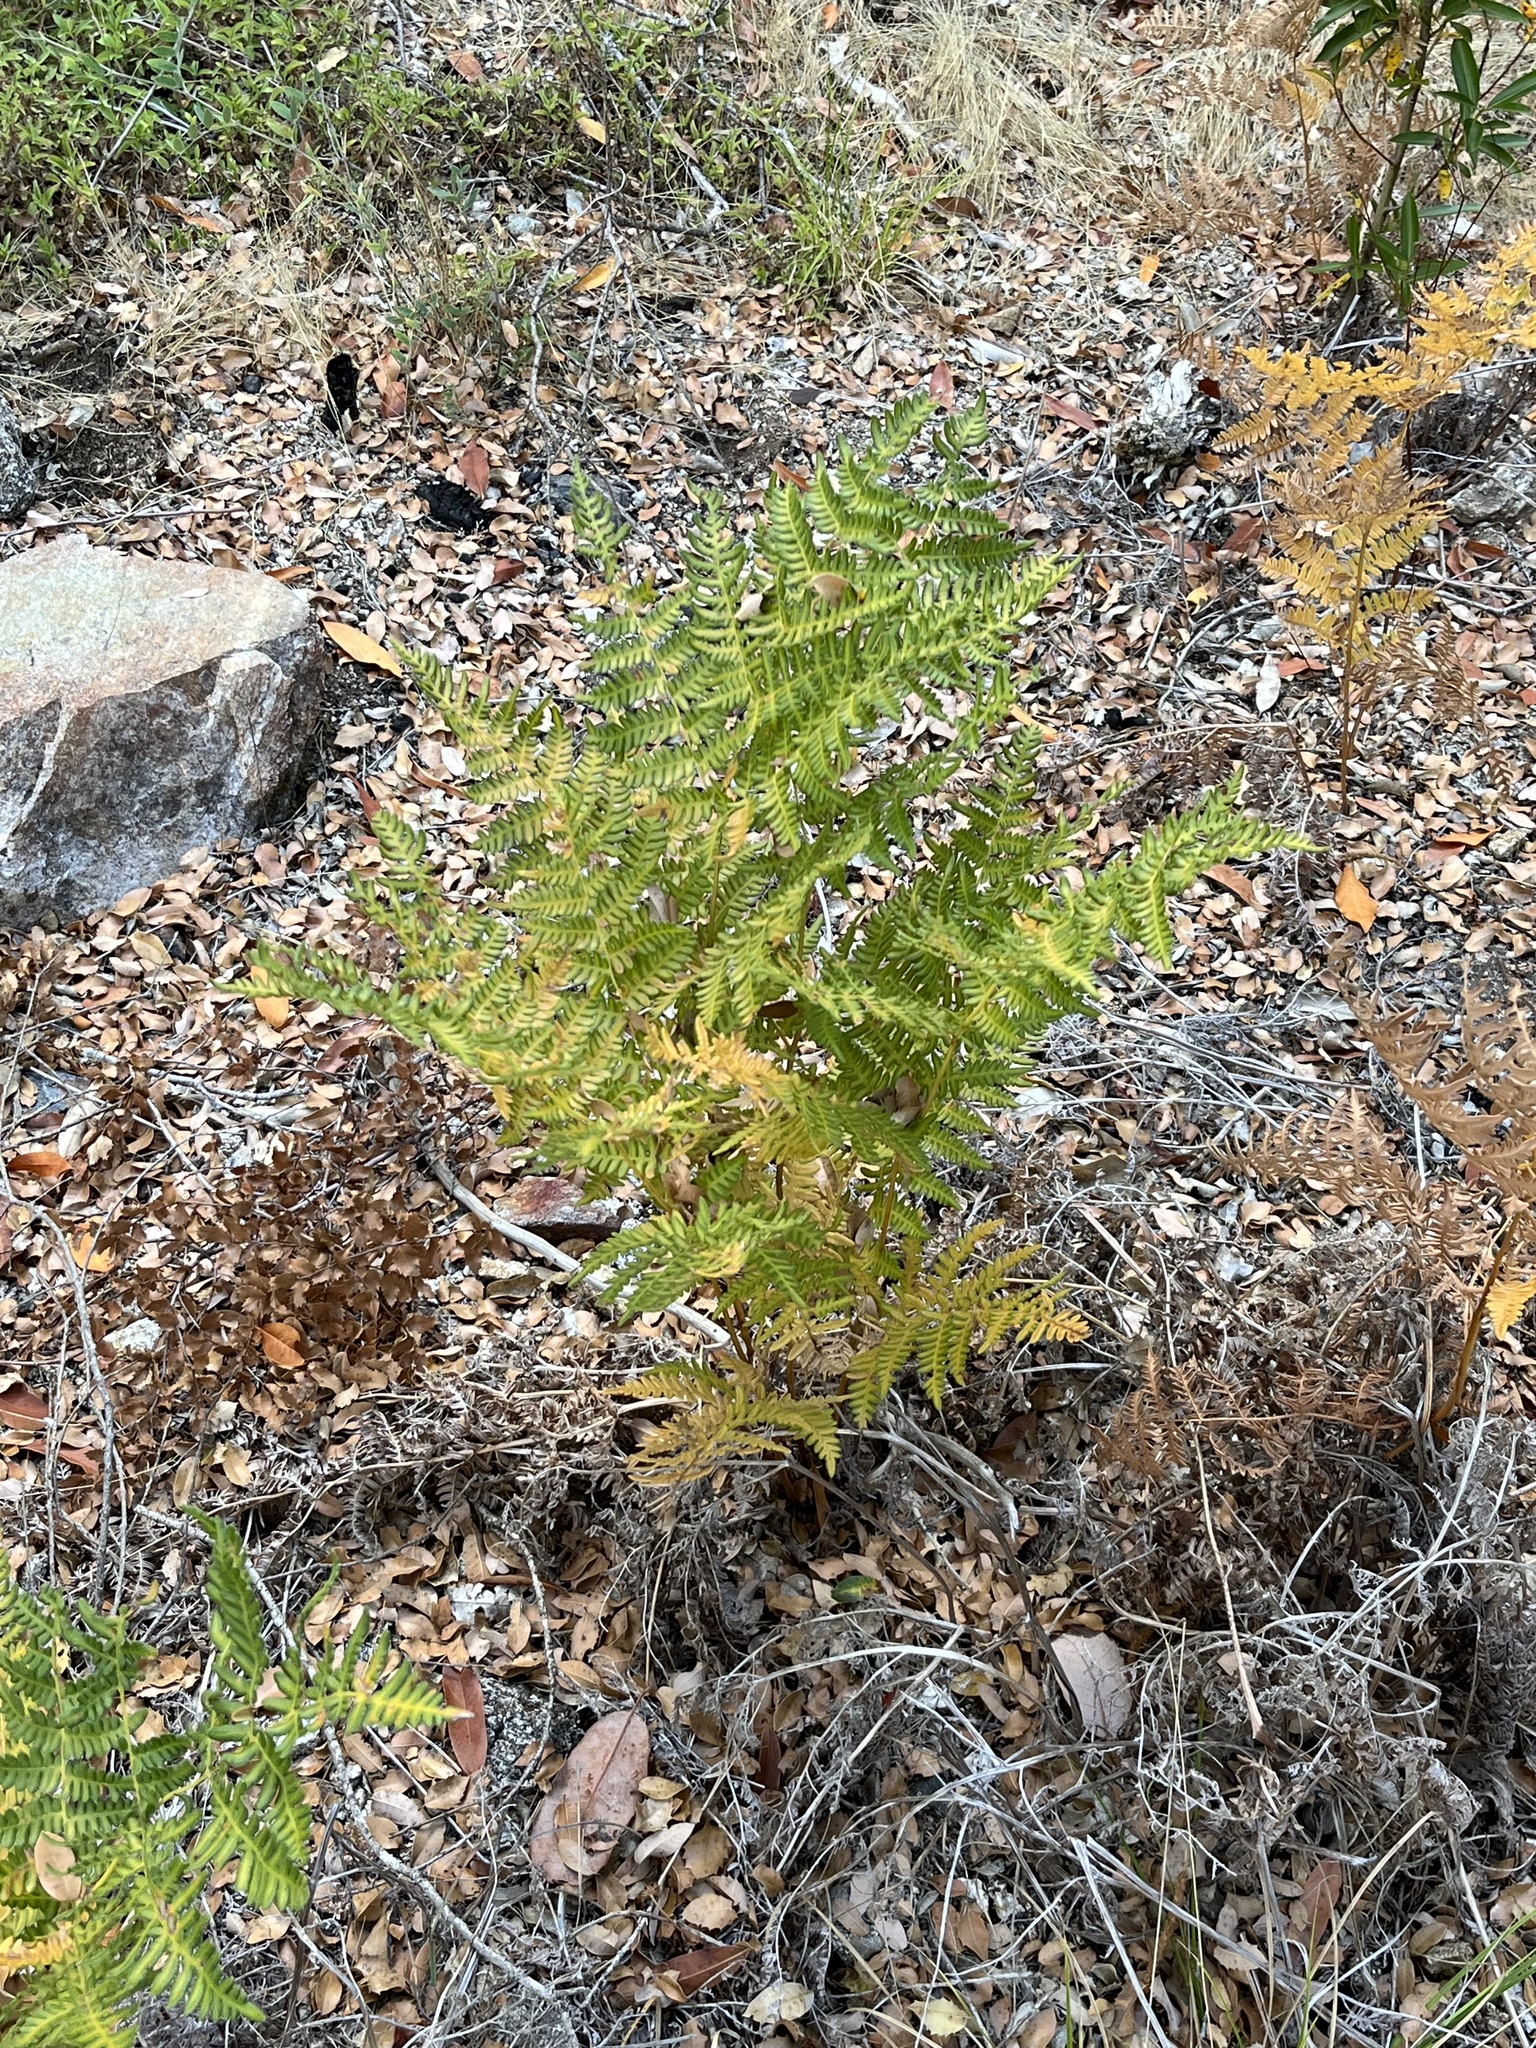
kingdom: Plantae
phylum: Tracheophyta
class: Polypodiopsida
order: Polypodiales
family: Dennstaedtiaceae
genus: Pteridium
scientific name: Pteridium aquilinum
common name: Bracken
